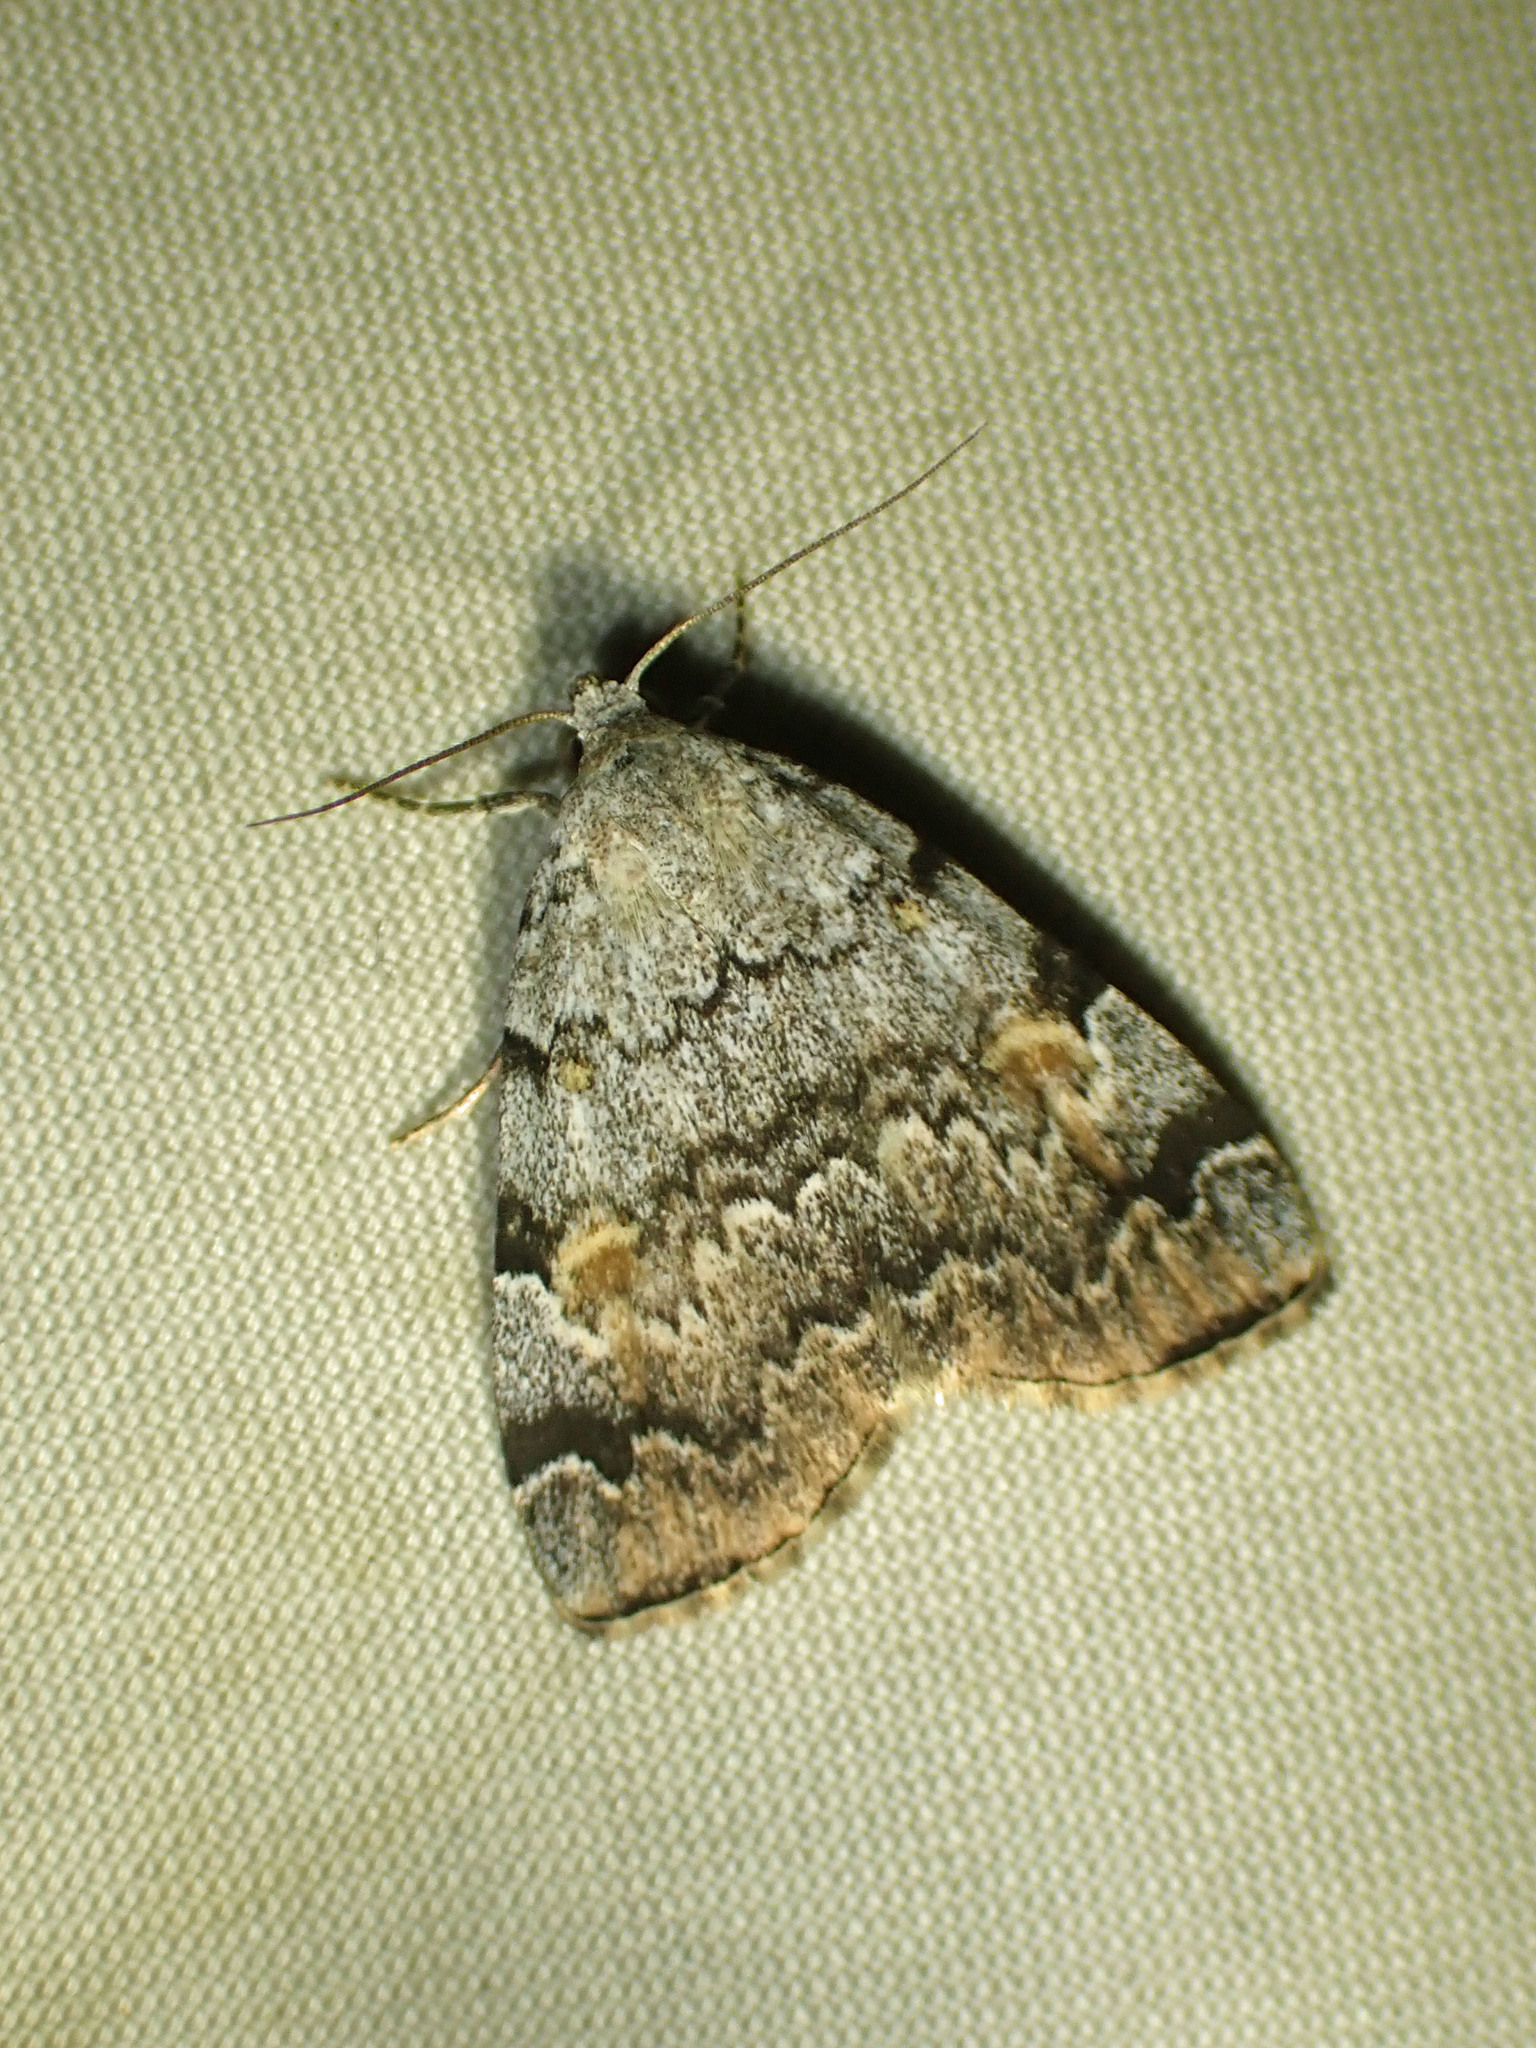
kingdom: Animalia
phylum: Arthropoda
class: Insecta
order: Lepidoptera
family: Erebidae
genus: Idia
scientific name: Idia americalis
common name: American idia moth
